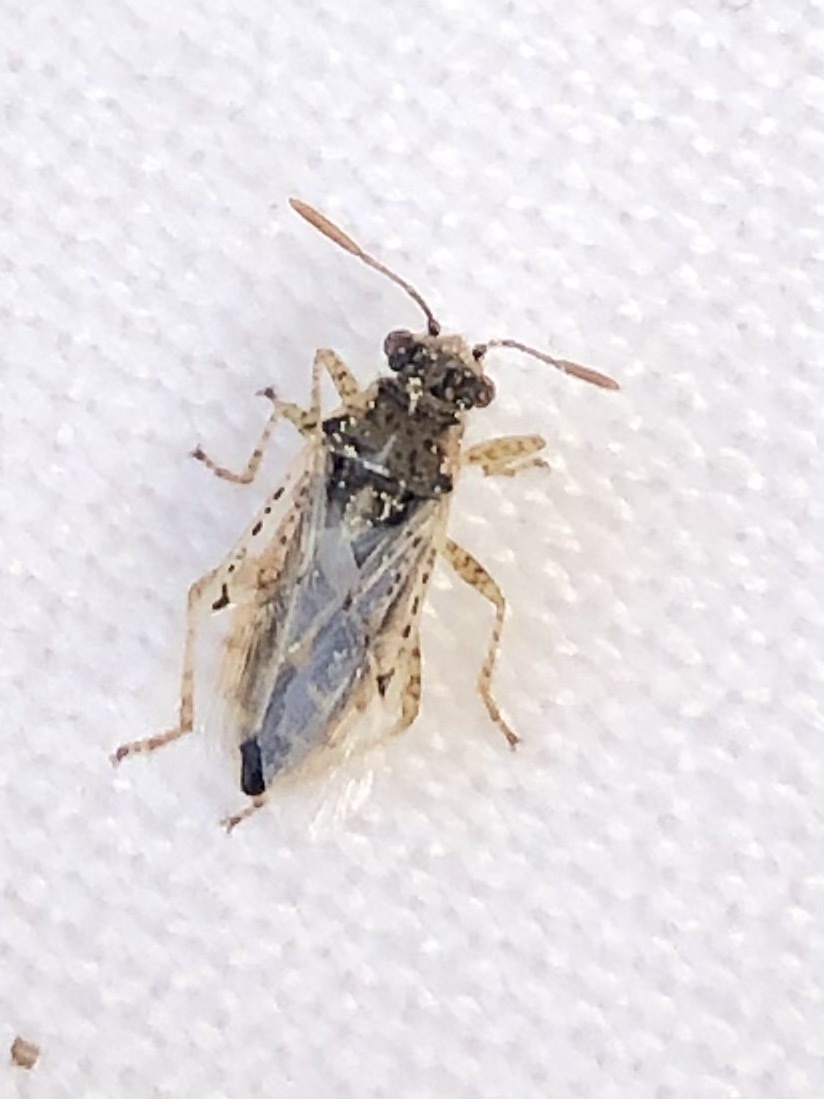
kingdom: Animalia
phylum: Arthropoda
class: Insecta
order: Hemiptera
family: Rhopalidae
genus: Brachycarenus
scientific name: Brachycarenus tigrinus
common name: Scentless plant bug
